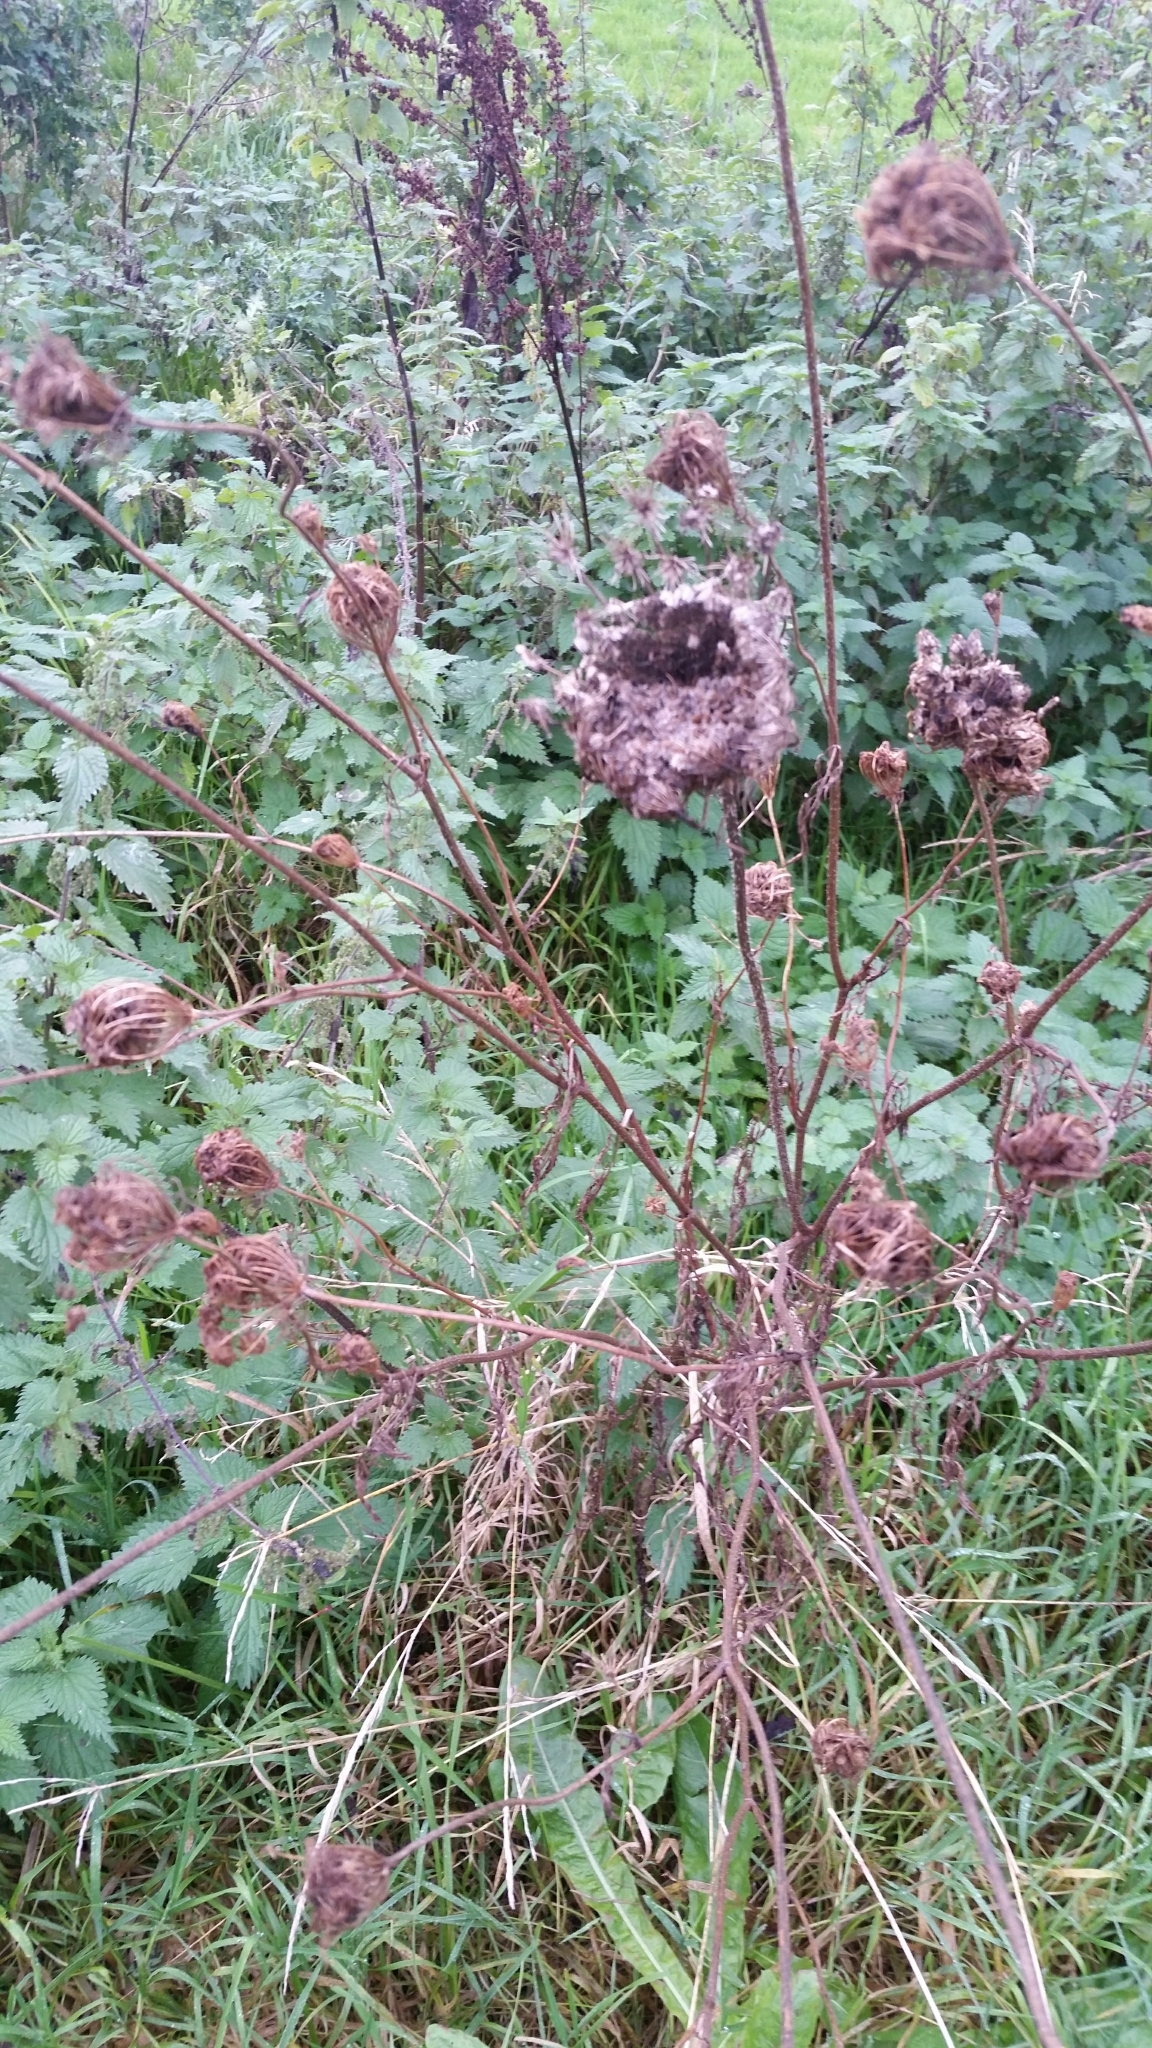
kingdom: Plantae
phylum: Tracheophyta
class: Magnoliopsida
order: Apiales
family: Apiaceae
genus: Daucus
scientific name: Daucus carota
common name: Wild carrot
